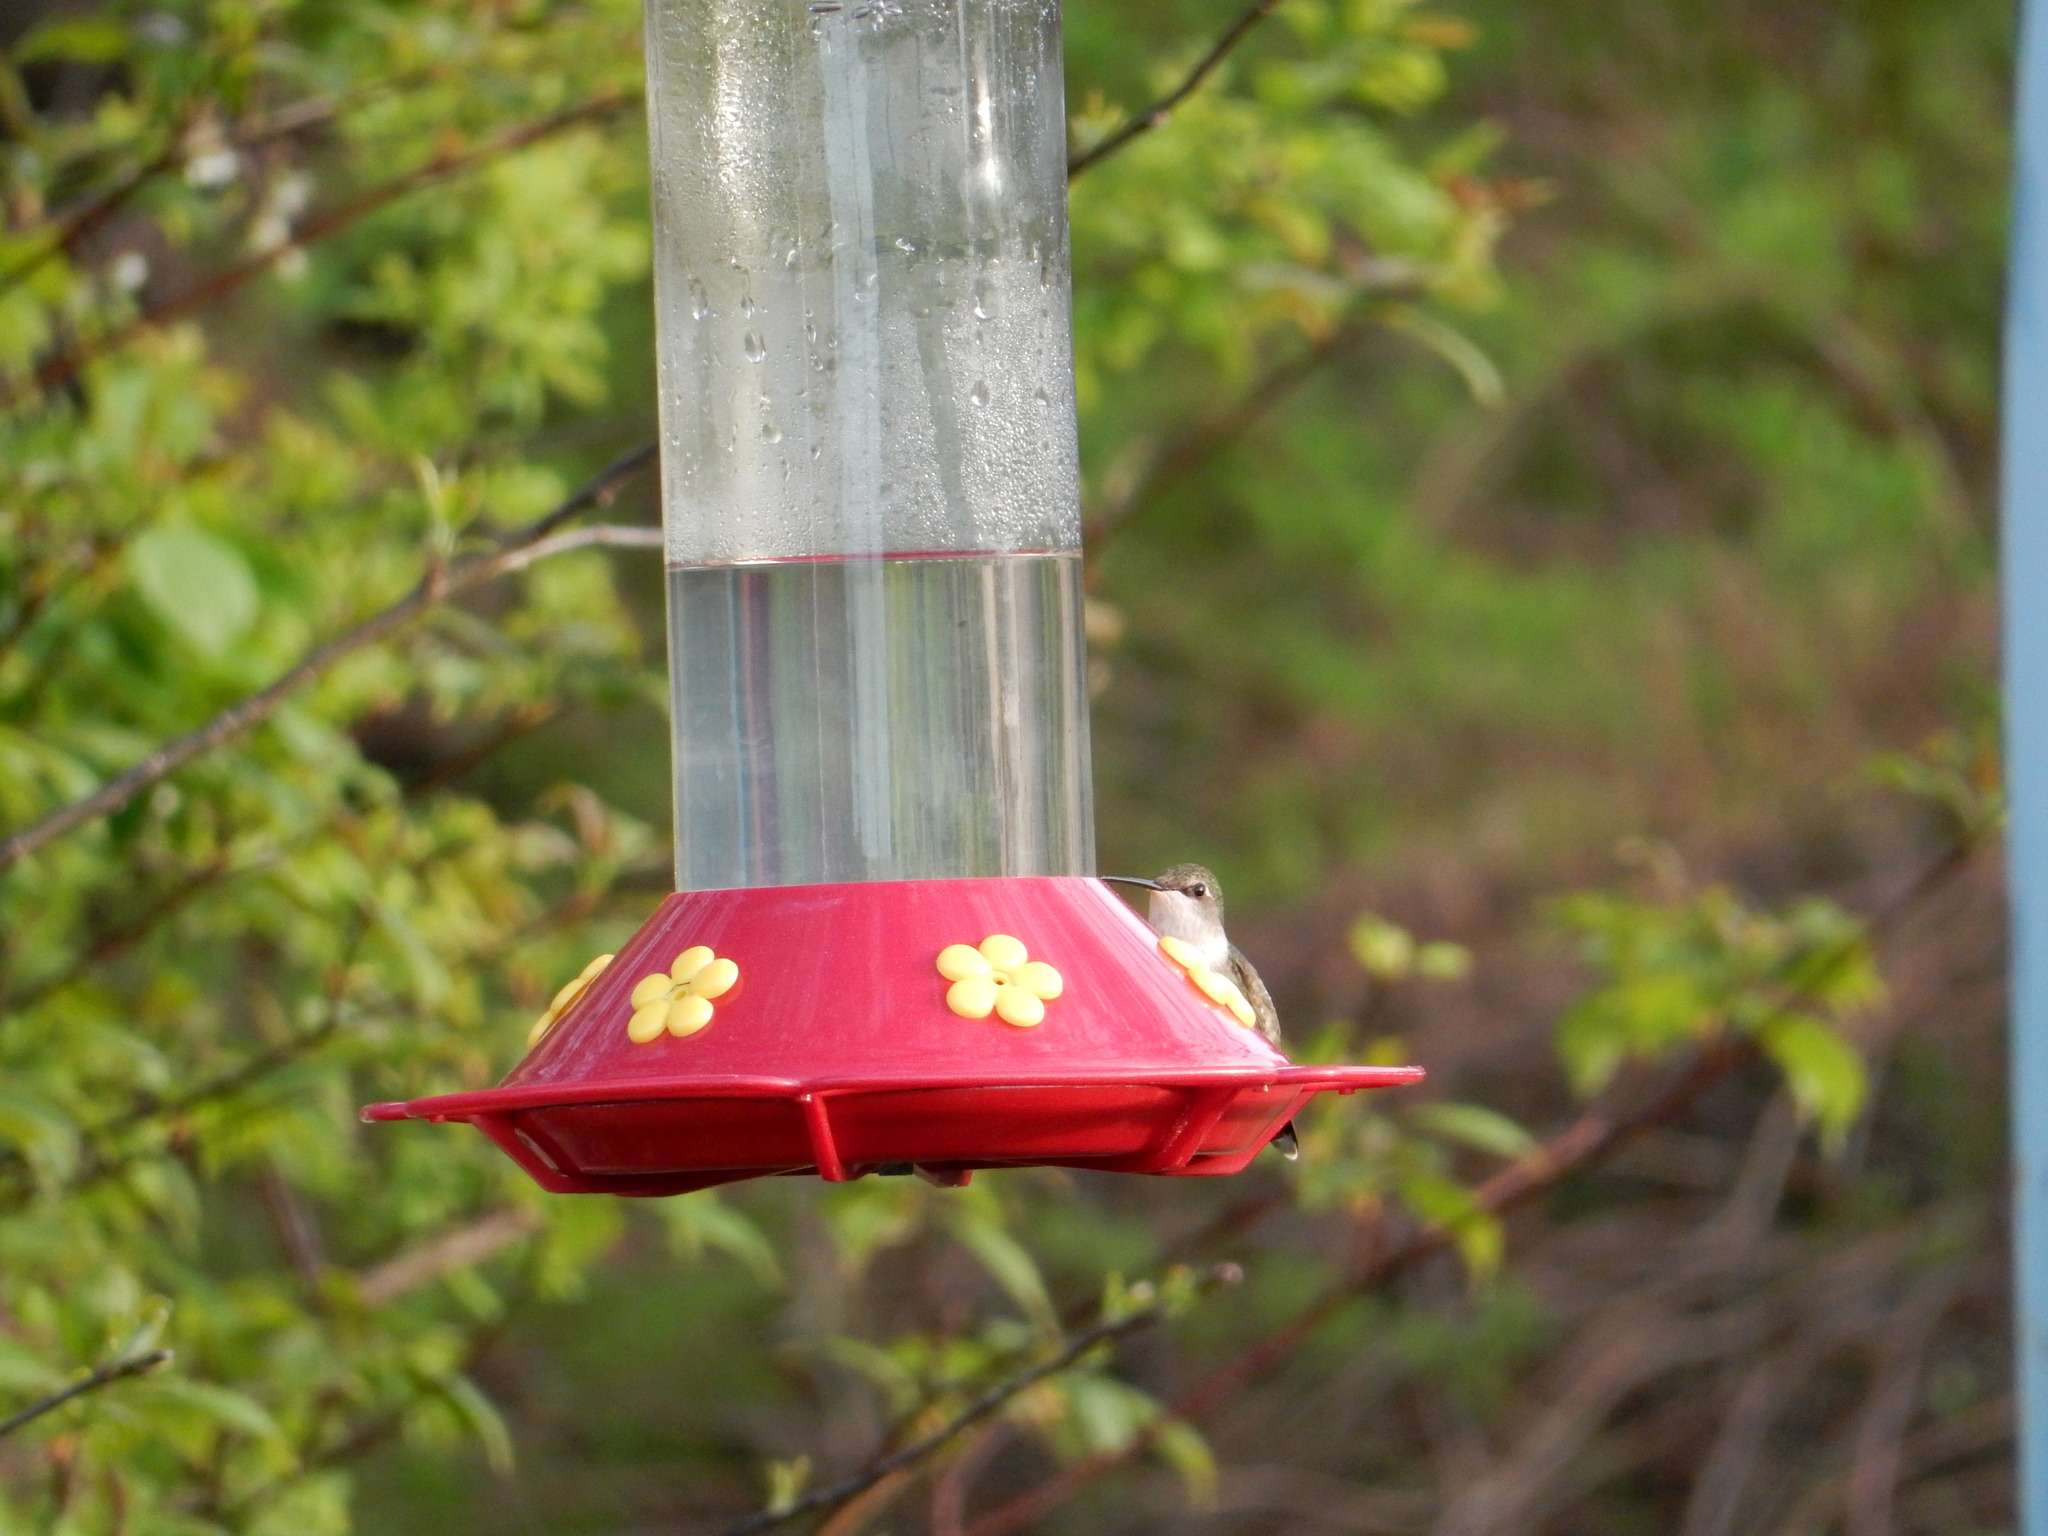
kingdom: Animalia
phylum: Chordata
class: Aves
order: Apodiformes
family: Trochilidae
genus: Archilochus
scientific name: Archilochus colubris
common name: Ruby-throated hummingbird
